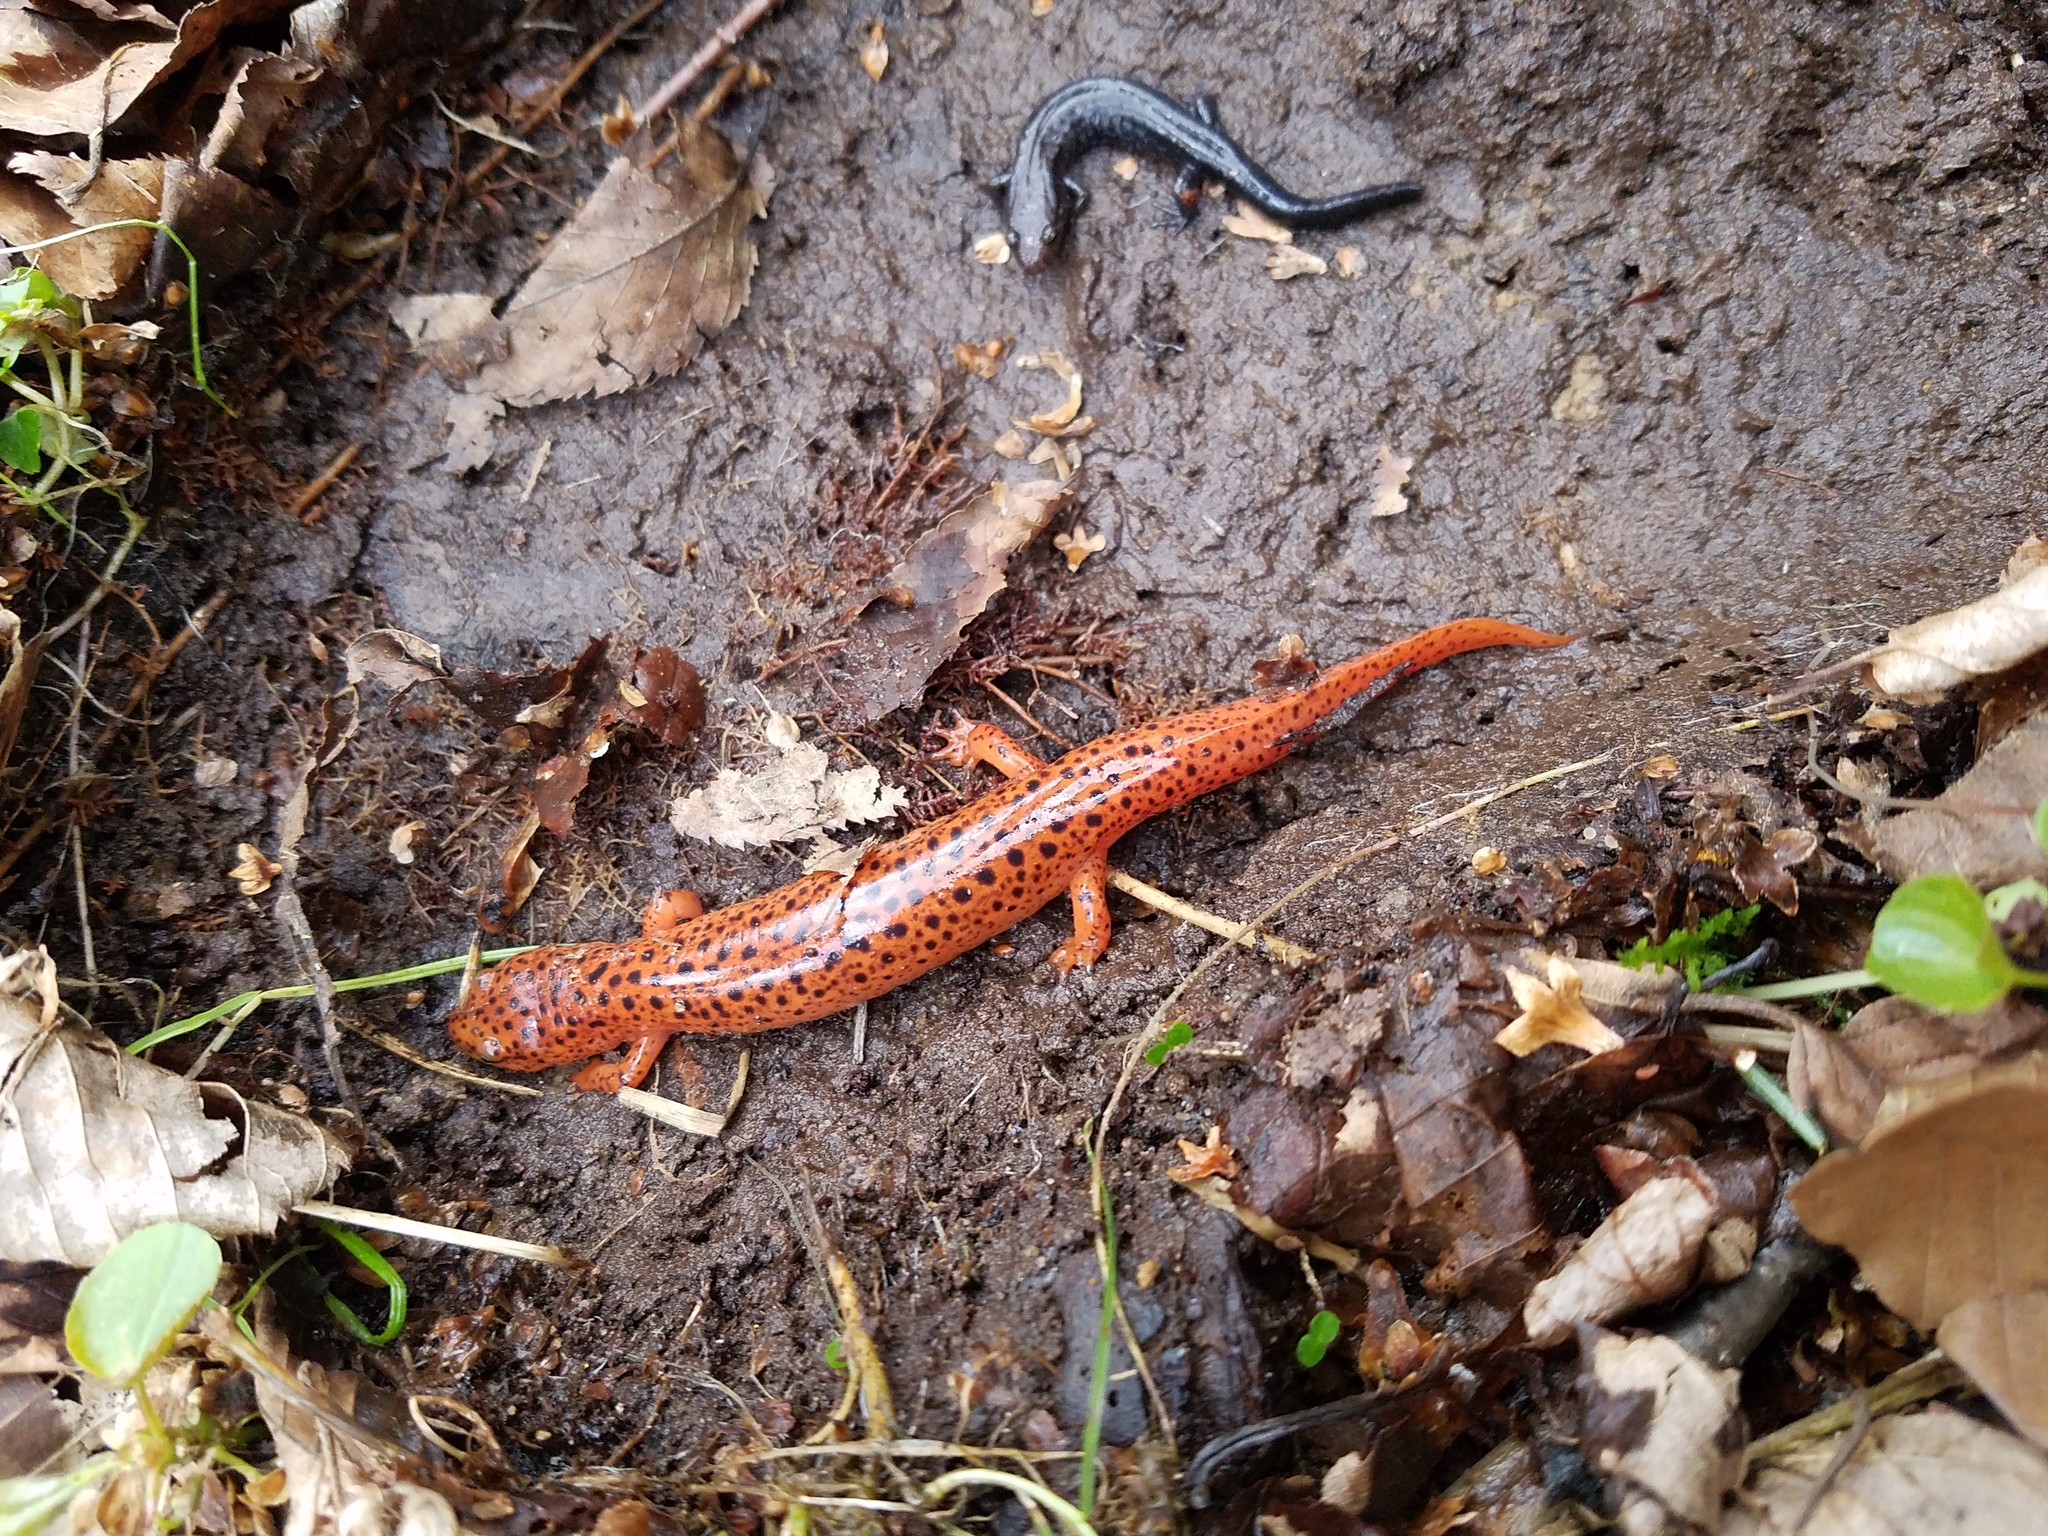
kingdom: Animalia
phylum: Chordata
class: Amphibia
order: Caudata
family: Plethodontidae
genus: Pseudotriton
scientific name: Pseudotriton ruber
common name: Red salamander
